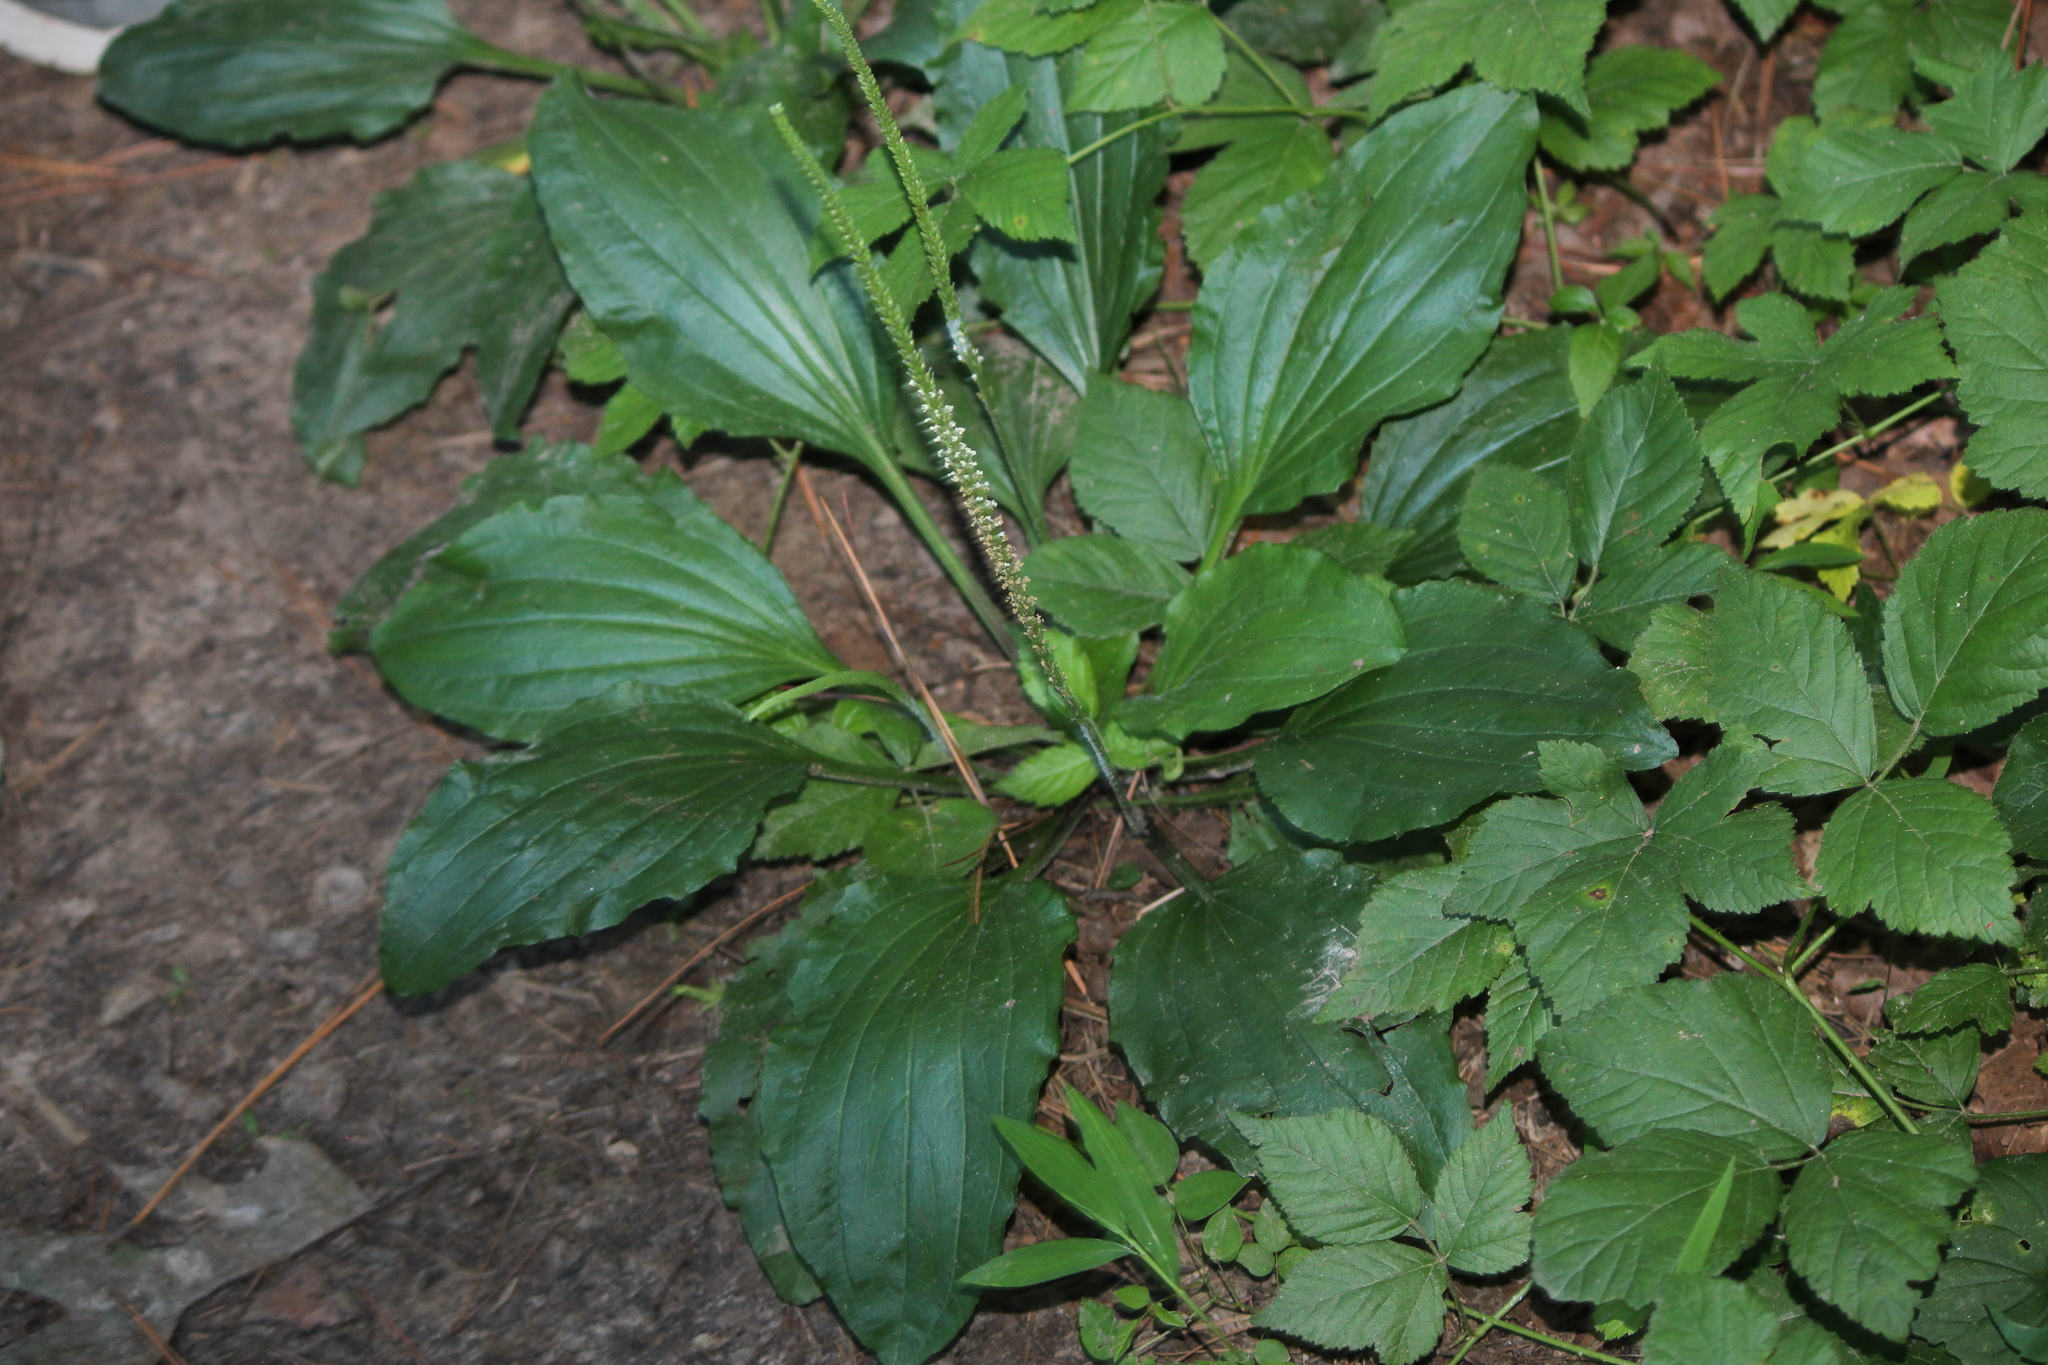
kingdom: Plantae
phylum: Tracheophyta
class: Magnoliopsida
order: Lamiales
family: Plantaginaceae
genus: Plantago
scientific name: Plantago rugelii
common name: American plantain
